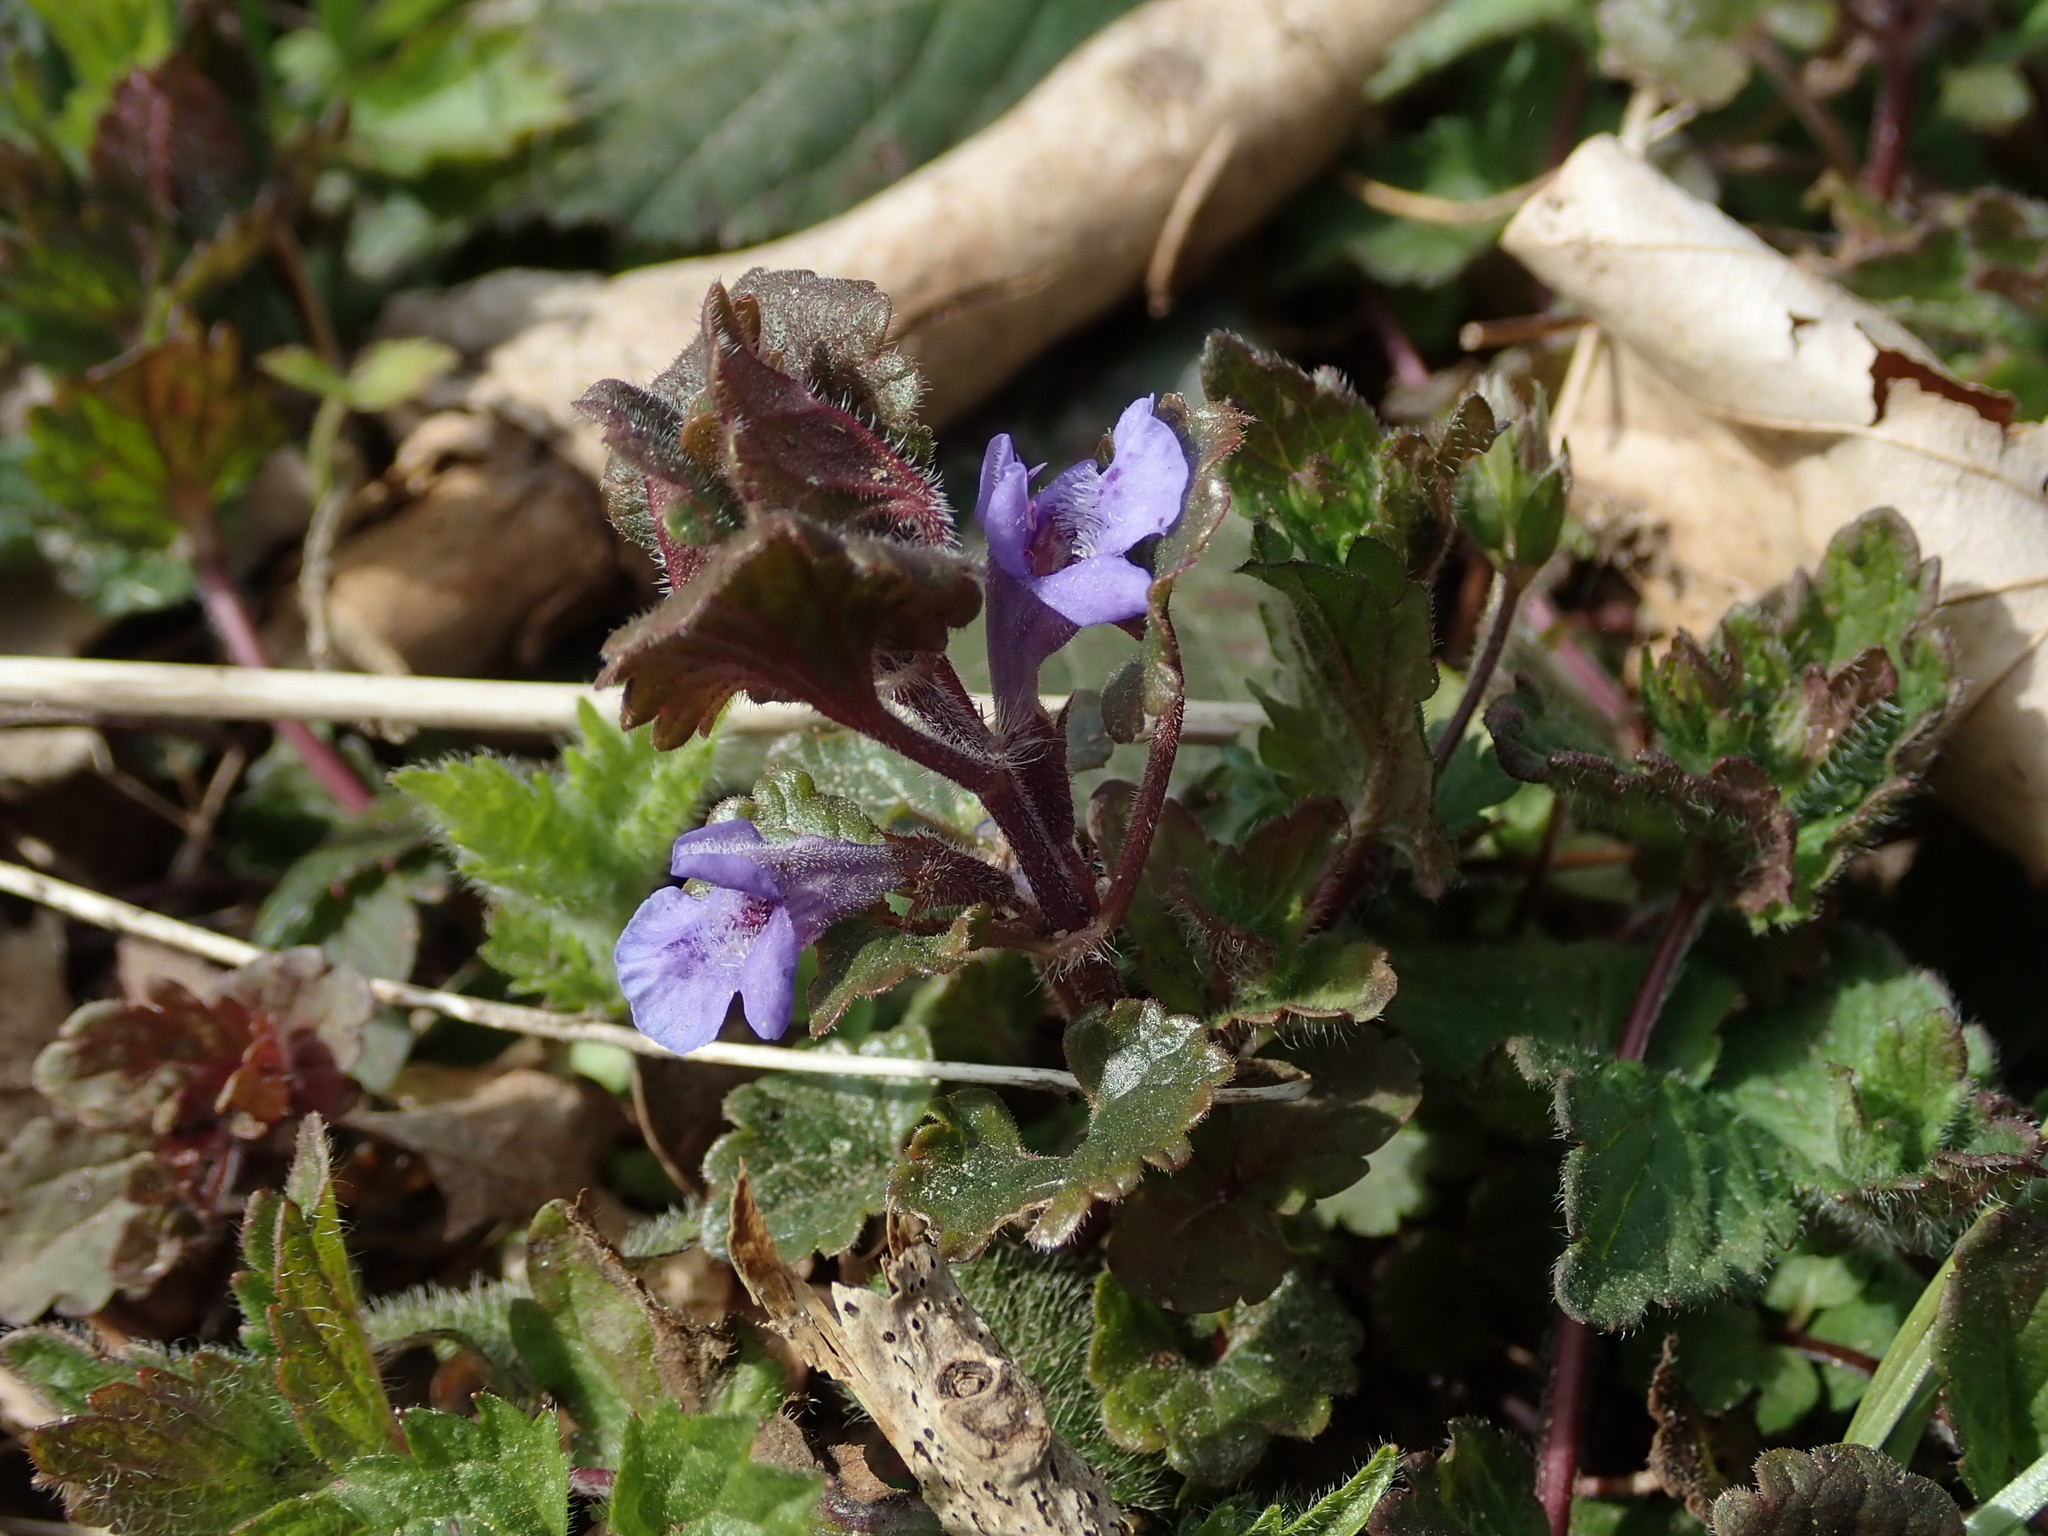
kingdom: Plantae
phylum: Tracheophyta
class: Magnoliopsida
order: Lamiales
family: Lamiaceae
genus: Glechoma
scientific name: Glechoma hederacea
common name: Ground ivy
